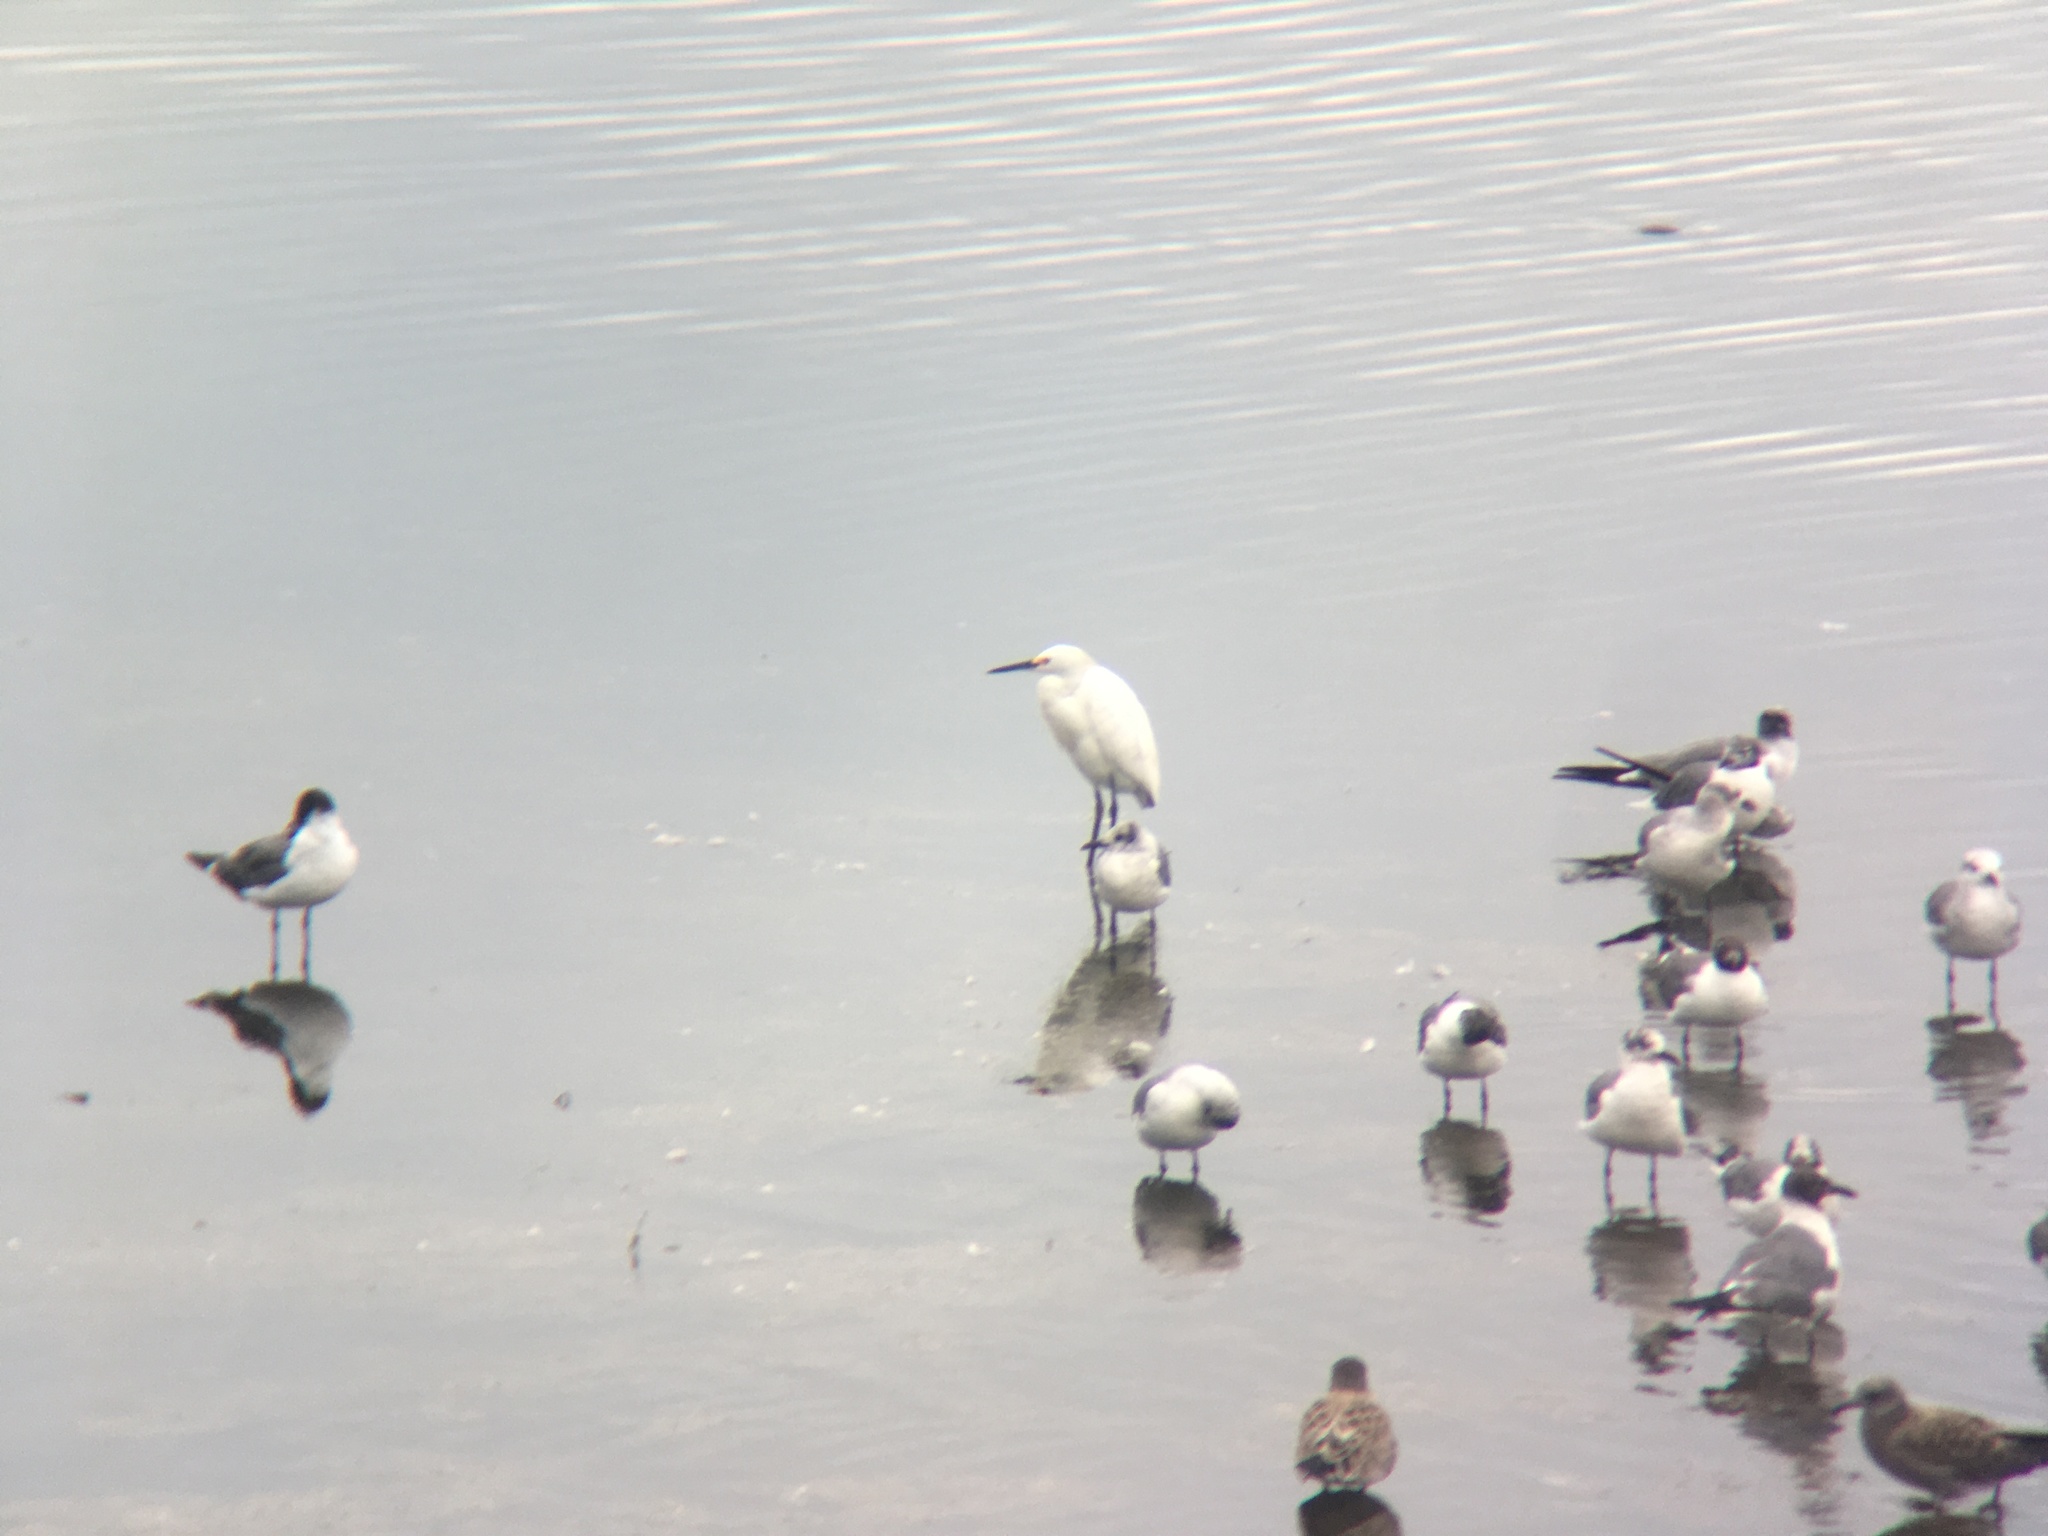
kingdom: Animalia
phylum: Chordata
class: Aves
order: Pelecaniformes
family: Ardeidae
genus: Egretta
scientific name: Egretta thula
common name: Snowy egret
